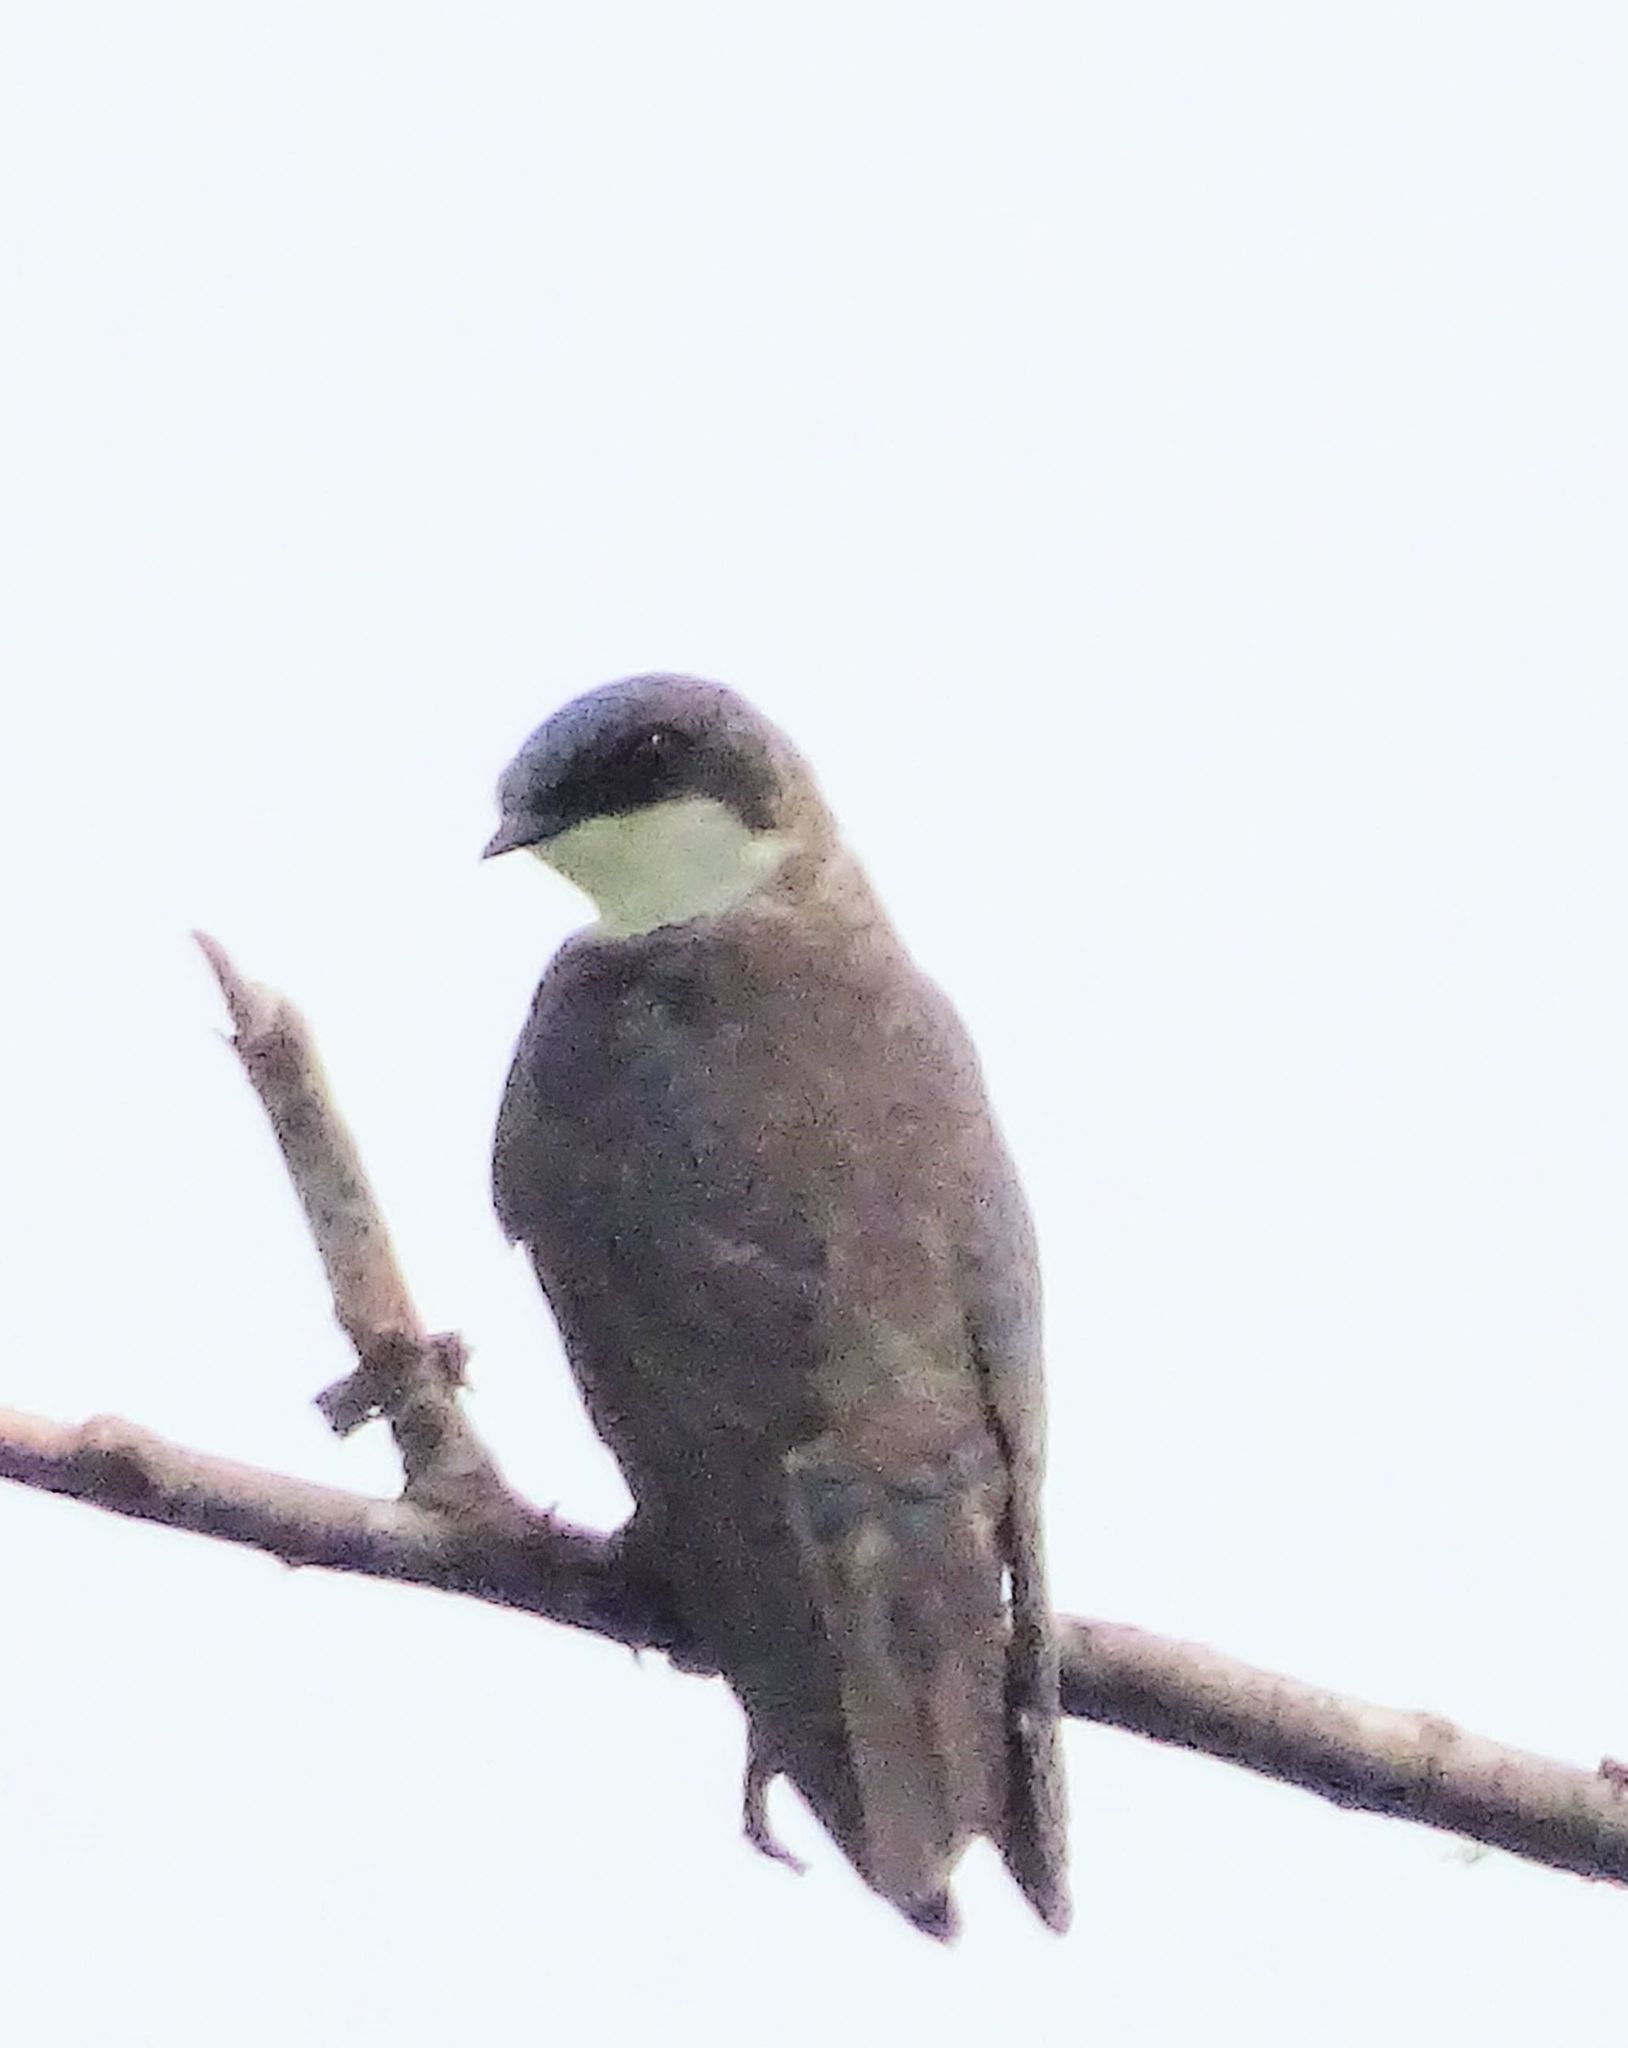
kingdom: Animalia
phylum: Chordata
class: Aves
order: Passeriformes
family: Hirundinidae
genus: Tachycineta
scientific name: Tachycineta bicolor
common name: Tree swallow
